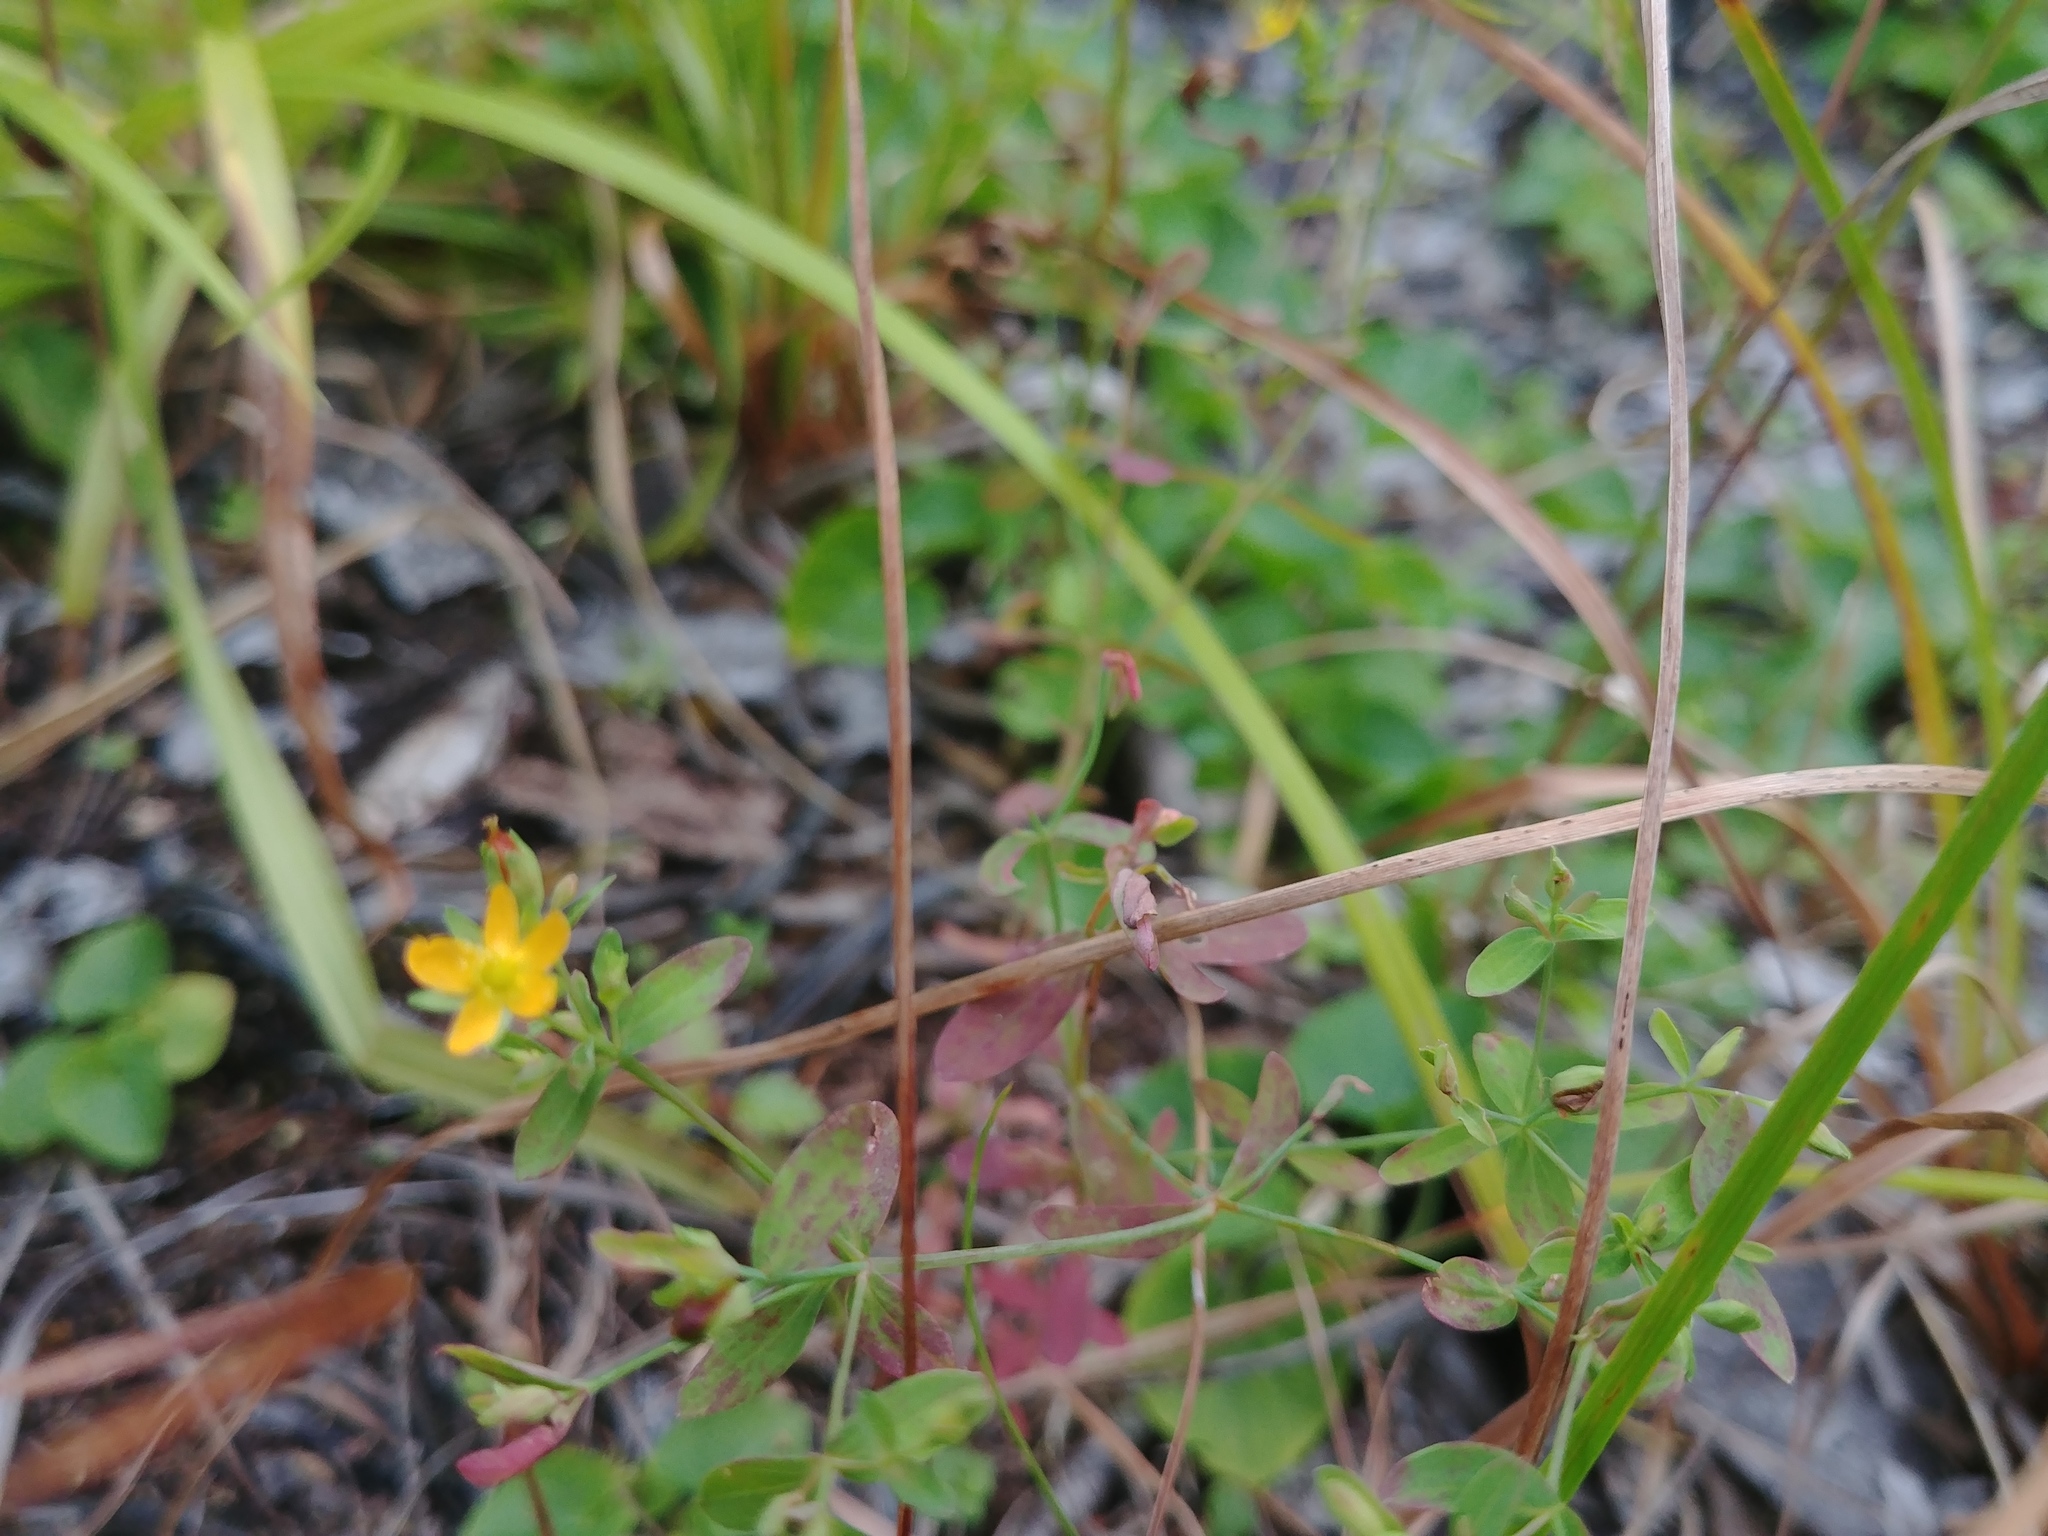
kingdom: Plantae
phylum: Tracheophyta
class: Magnoliopsida
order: Malpighiales
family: Hypericaceae
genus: Hypericum
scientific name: Hypericum mutilum
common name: Dwarf st. john's-wort
